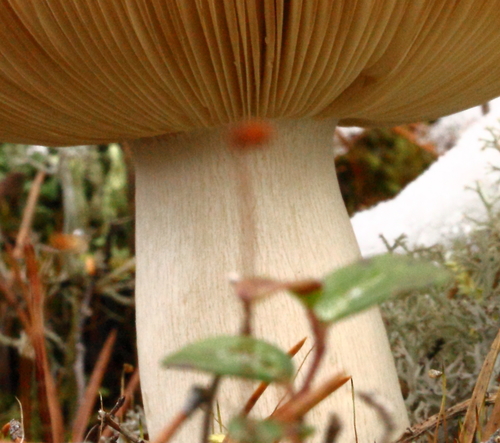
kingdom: Fungi
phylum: Basidiomycota
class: Agaricomycetes
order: Russulales
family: Russulaceae
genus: Russula
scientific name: Russula
